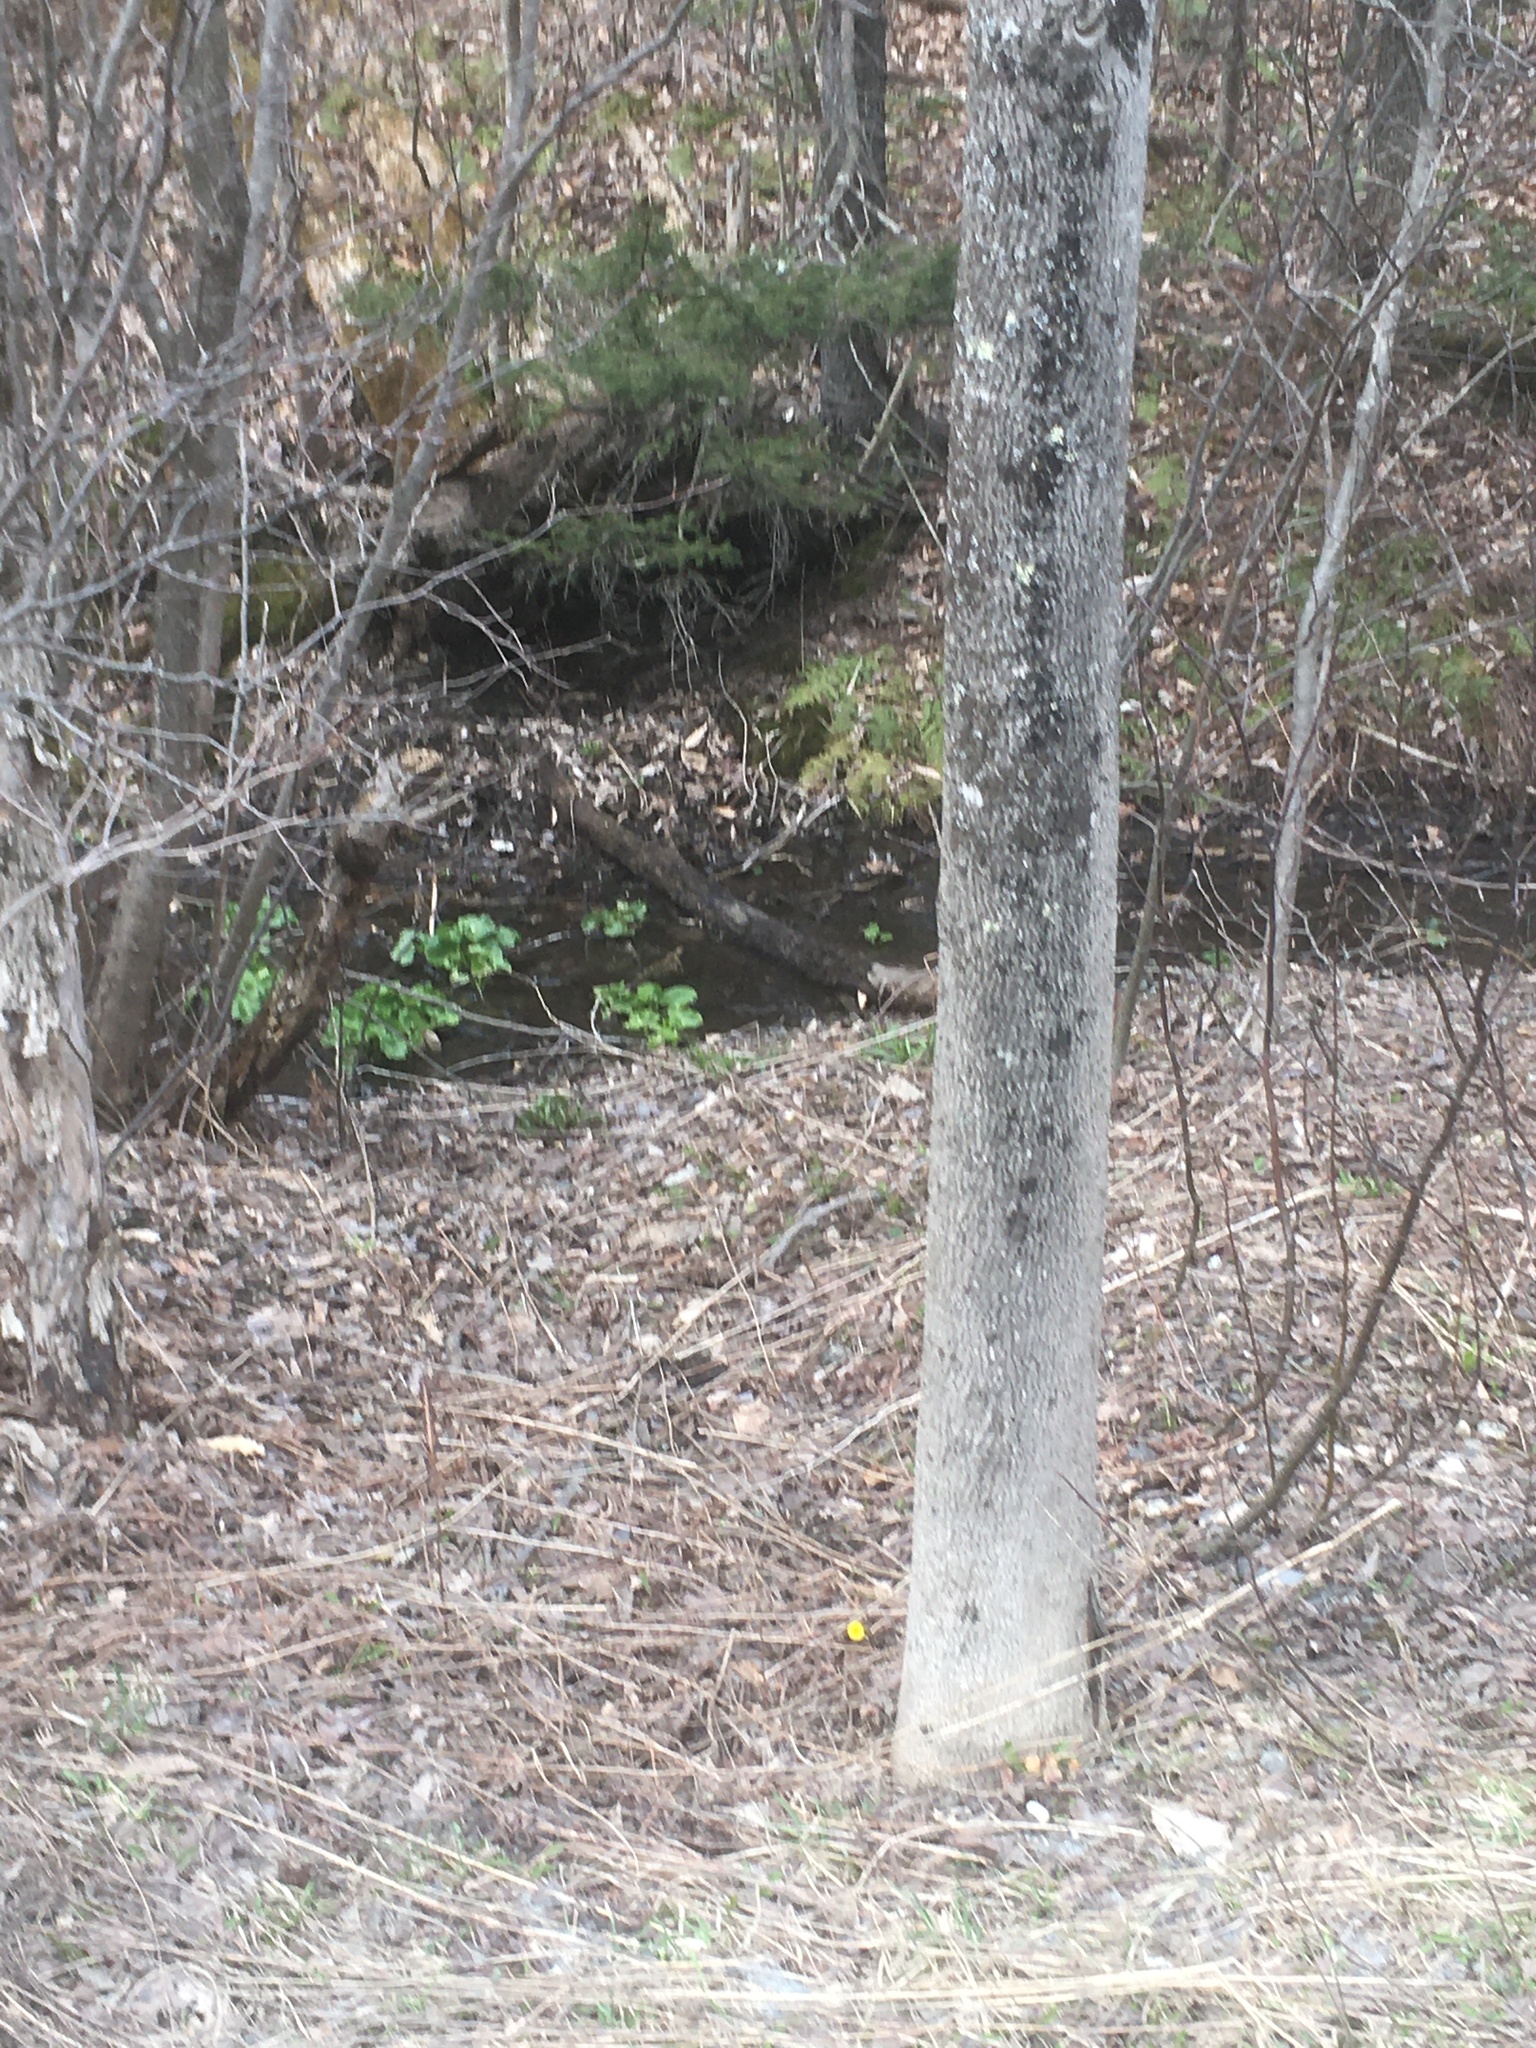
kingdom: Plantae
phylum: Tracheophyta
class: Magnoliopsida
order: Ranunculales
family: Ranunculaceae
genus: Caltha
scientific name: Caltha palustris
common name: Marsh marigold
